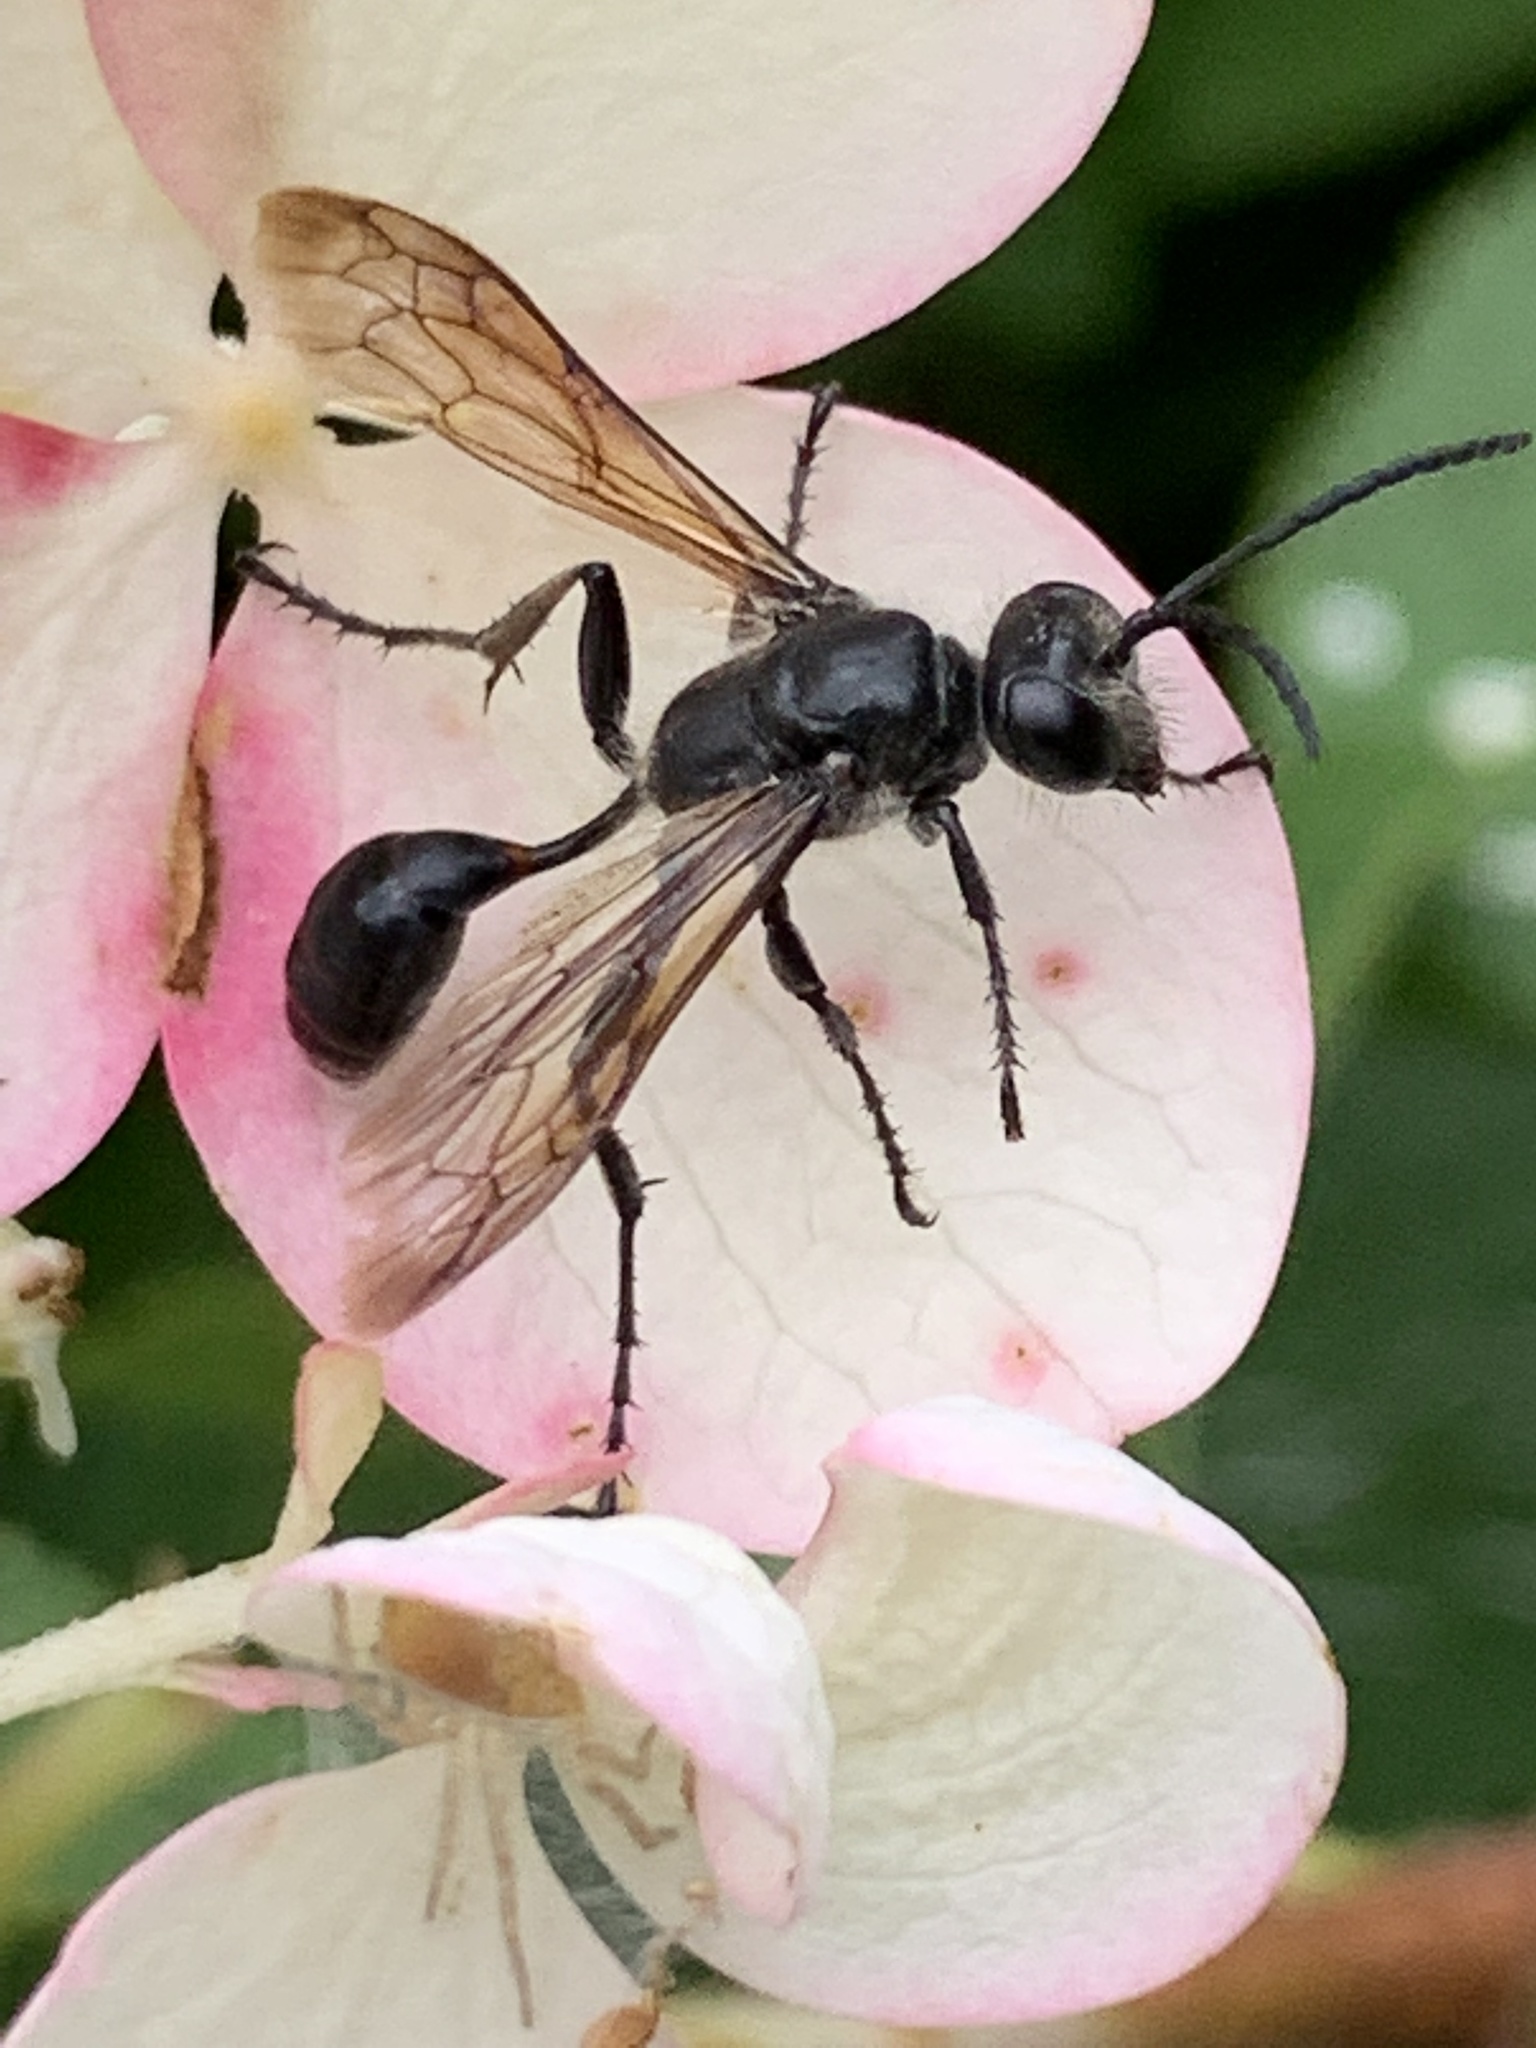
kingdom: Animalia
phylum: Arthropoda
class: Insecta
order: Hymenoptera
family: Sphecidae
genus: Isodontia
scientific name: Isodontia mexicana
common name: Mud dauber
